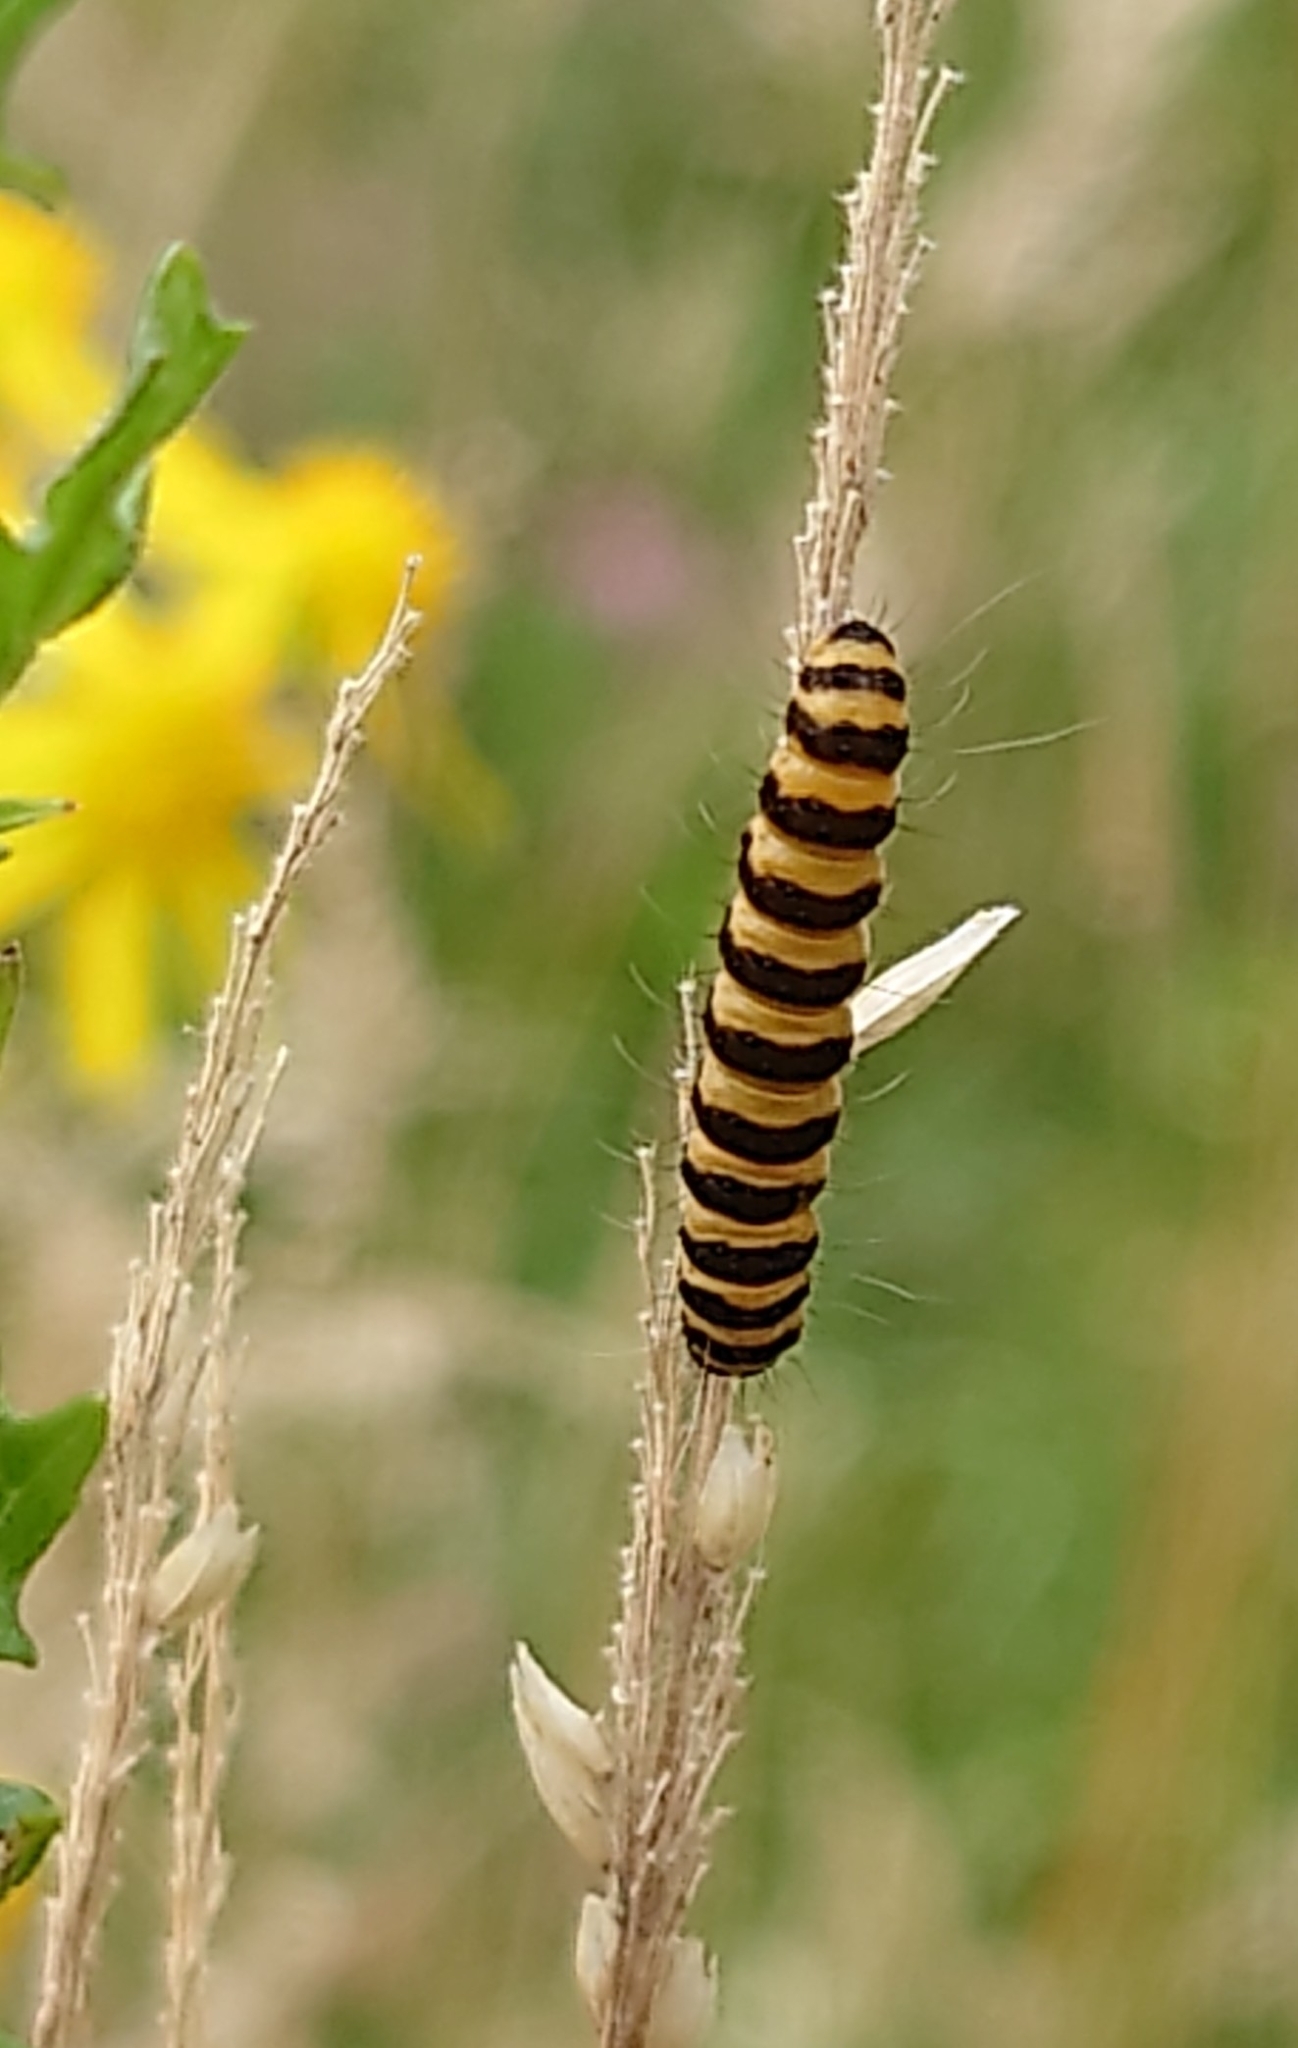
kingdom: Animalia
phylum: Arthropoda
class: Insecta
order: Lepidoptera
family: Erebidae
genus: Tyria
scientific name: Tyria jacobaeae
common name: Cinnabar
